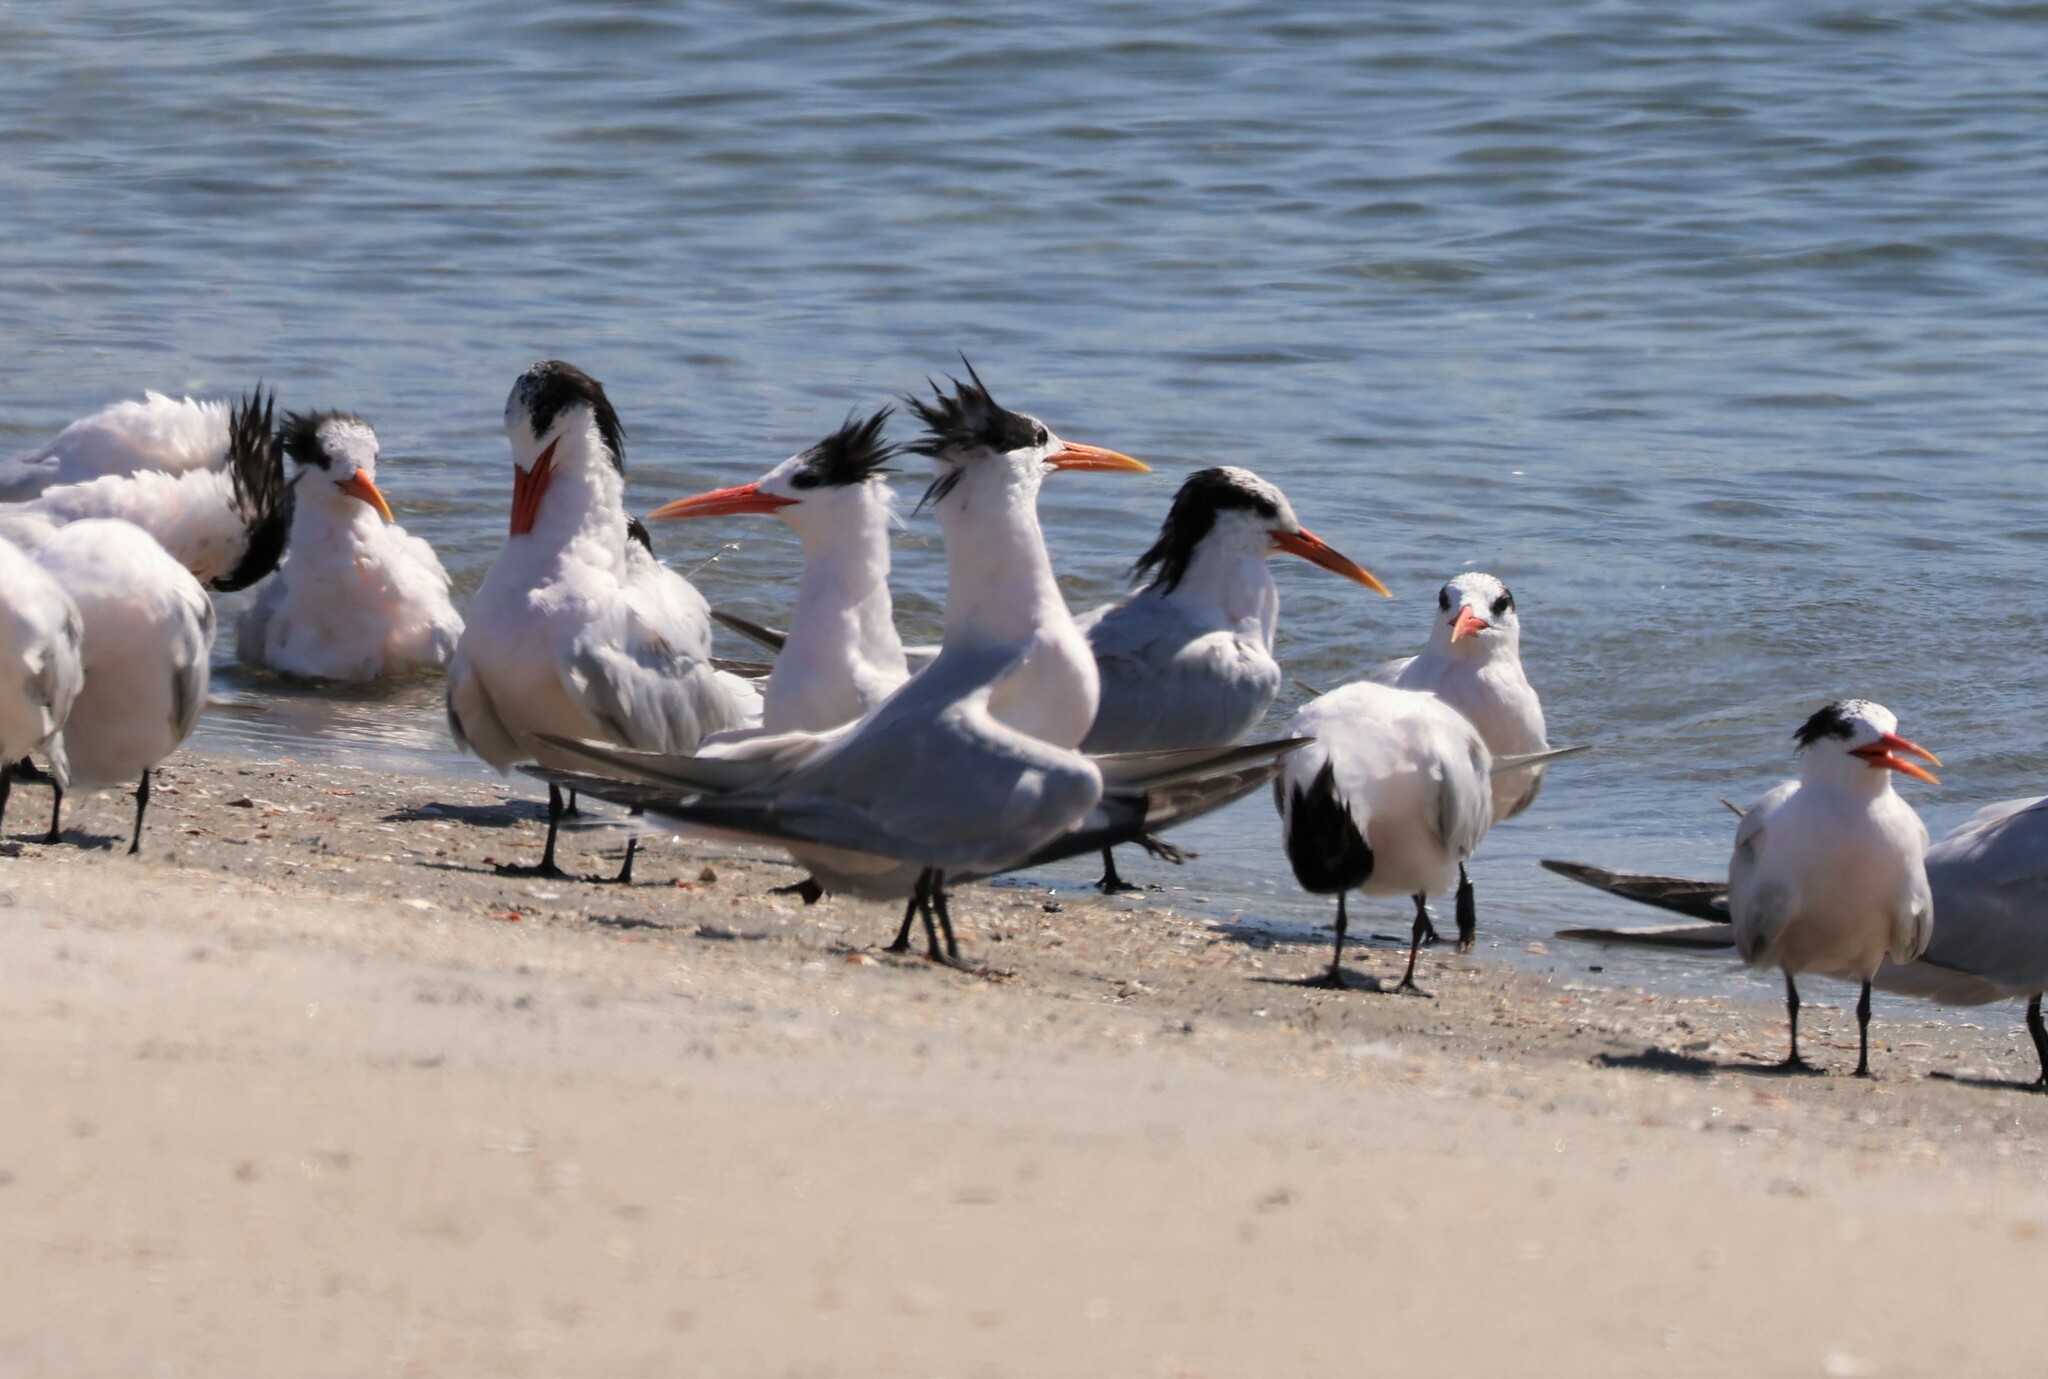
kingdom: Animalia
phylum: Chordata
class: Aves
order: Charadriiformes
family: Laridae
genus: Thalasseus
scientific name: Thalasseus elegans
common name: Elegant tern
